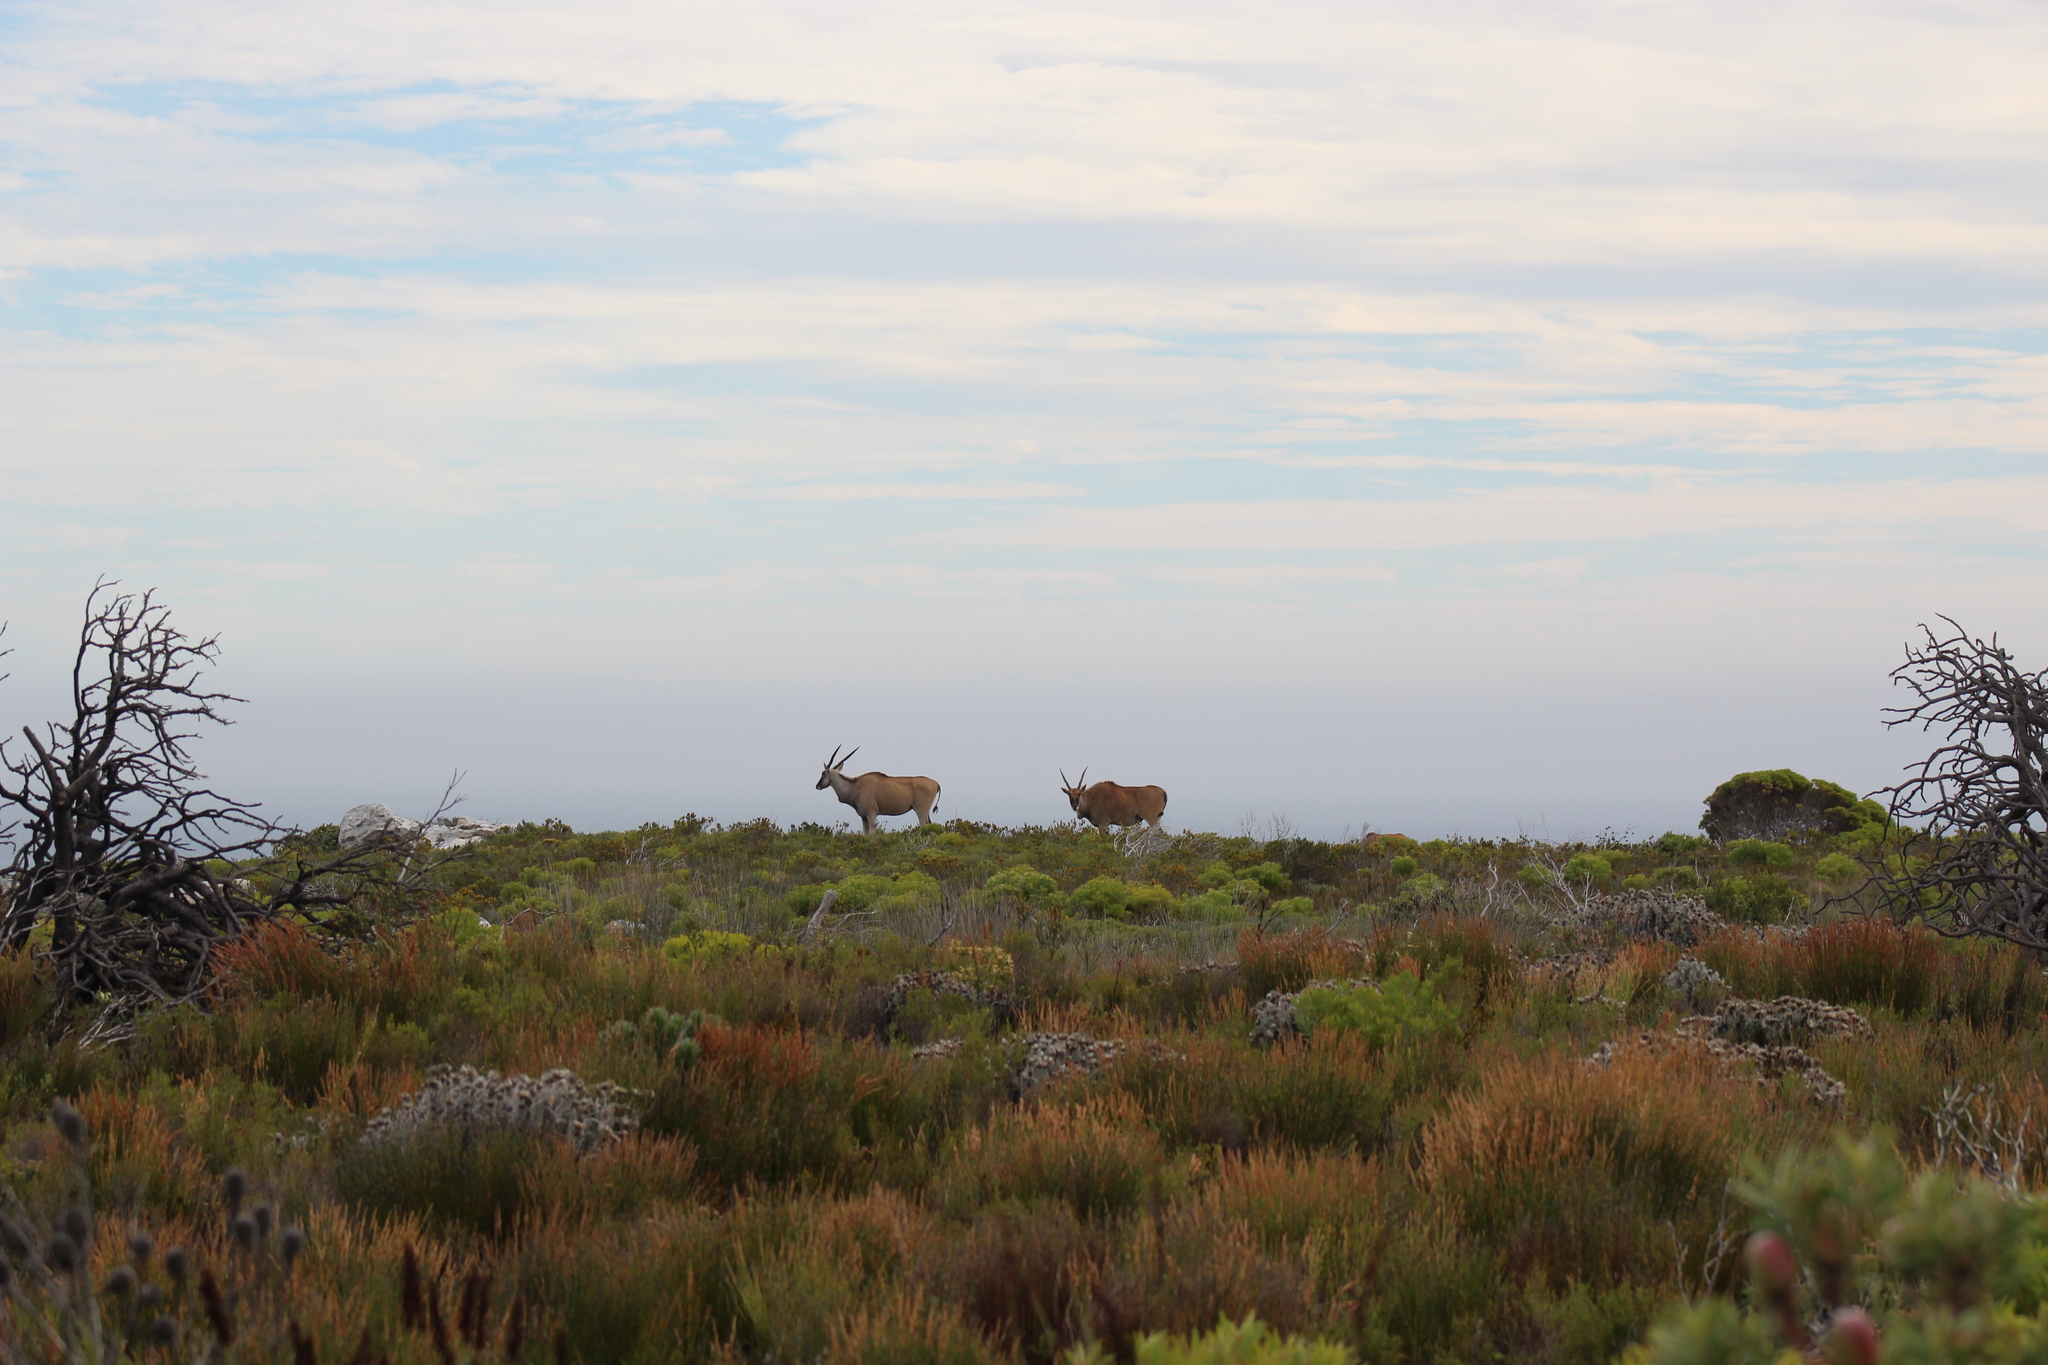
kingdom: Animalia
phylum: Chordata
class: Mammalia
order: Artiodactyla
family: Bovidae
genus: Taurotragus
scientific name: Taurotragus oryx
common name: Common eland
